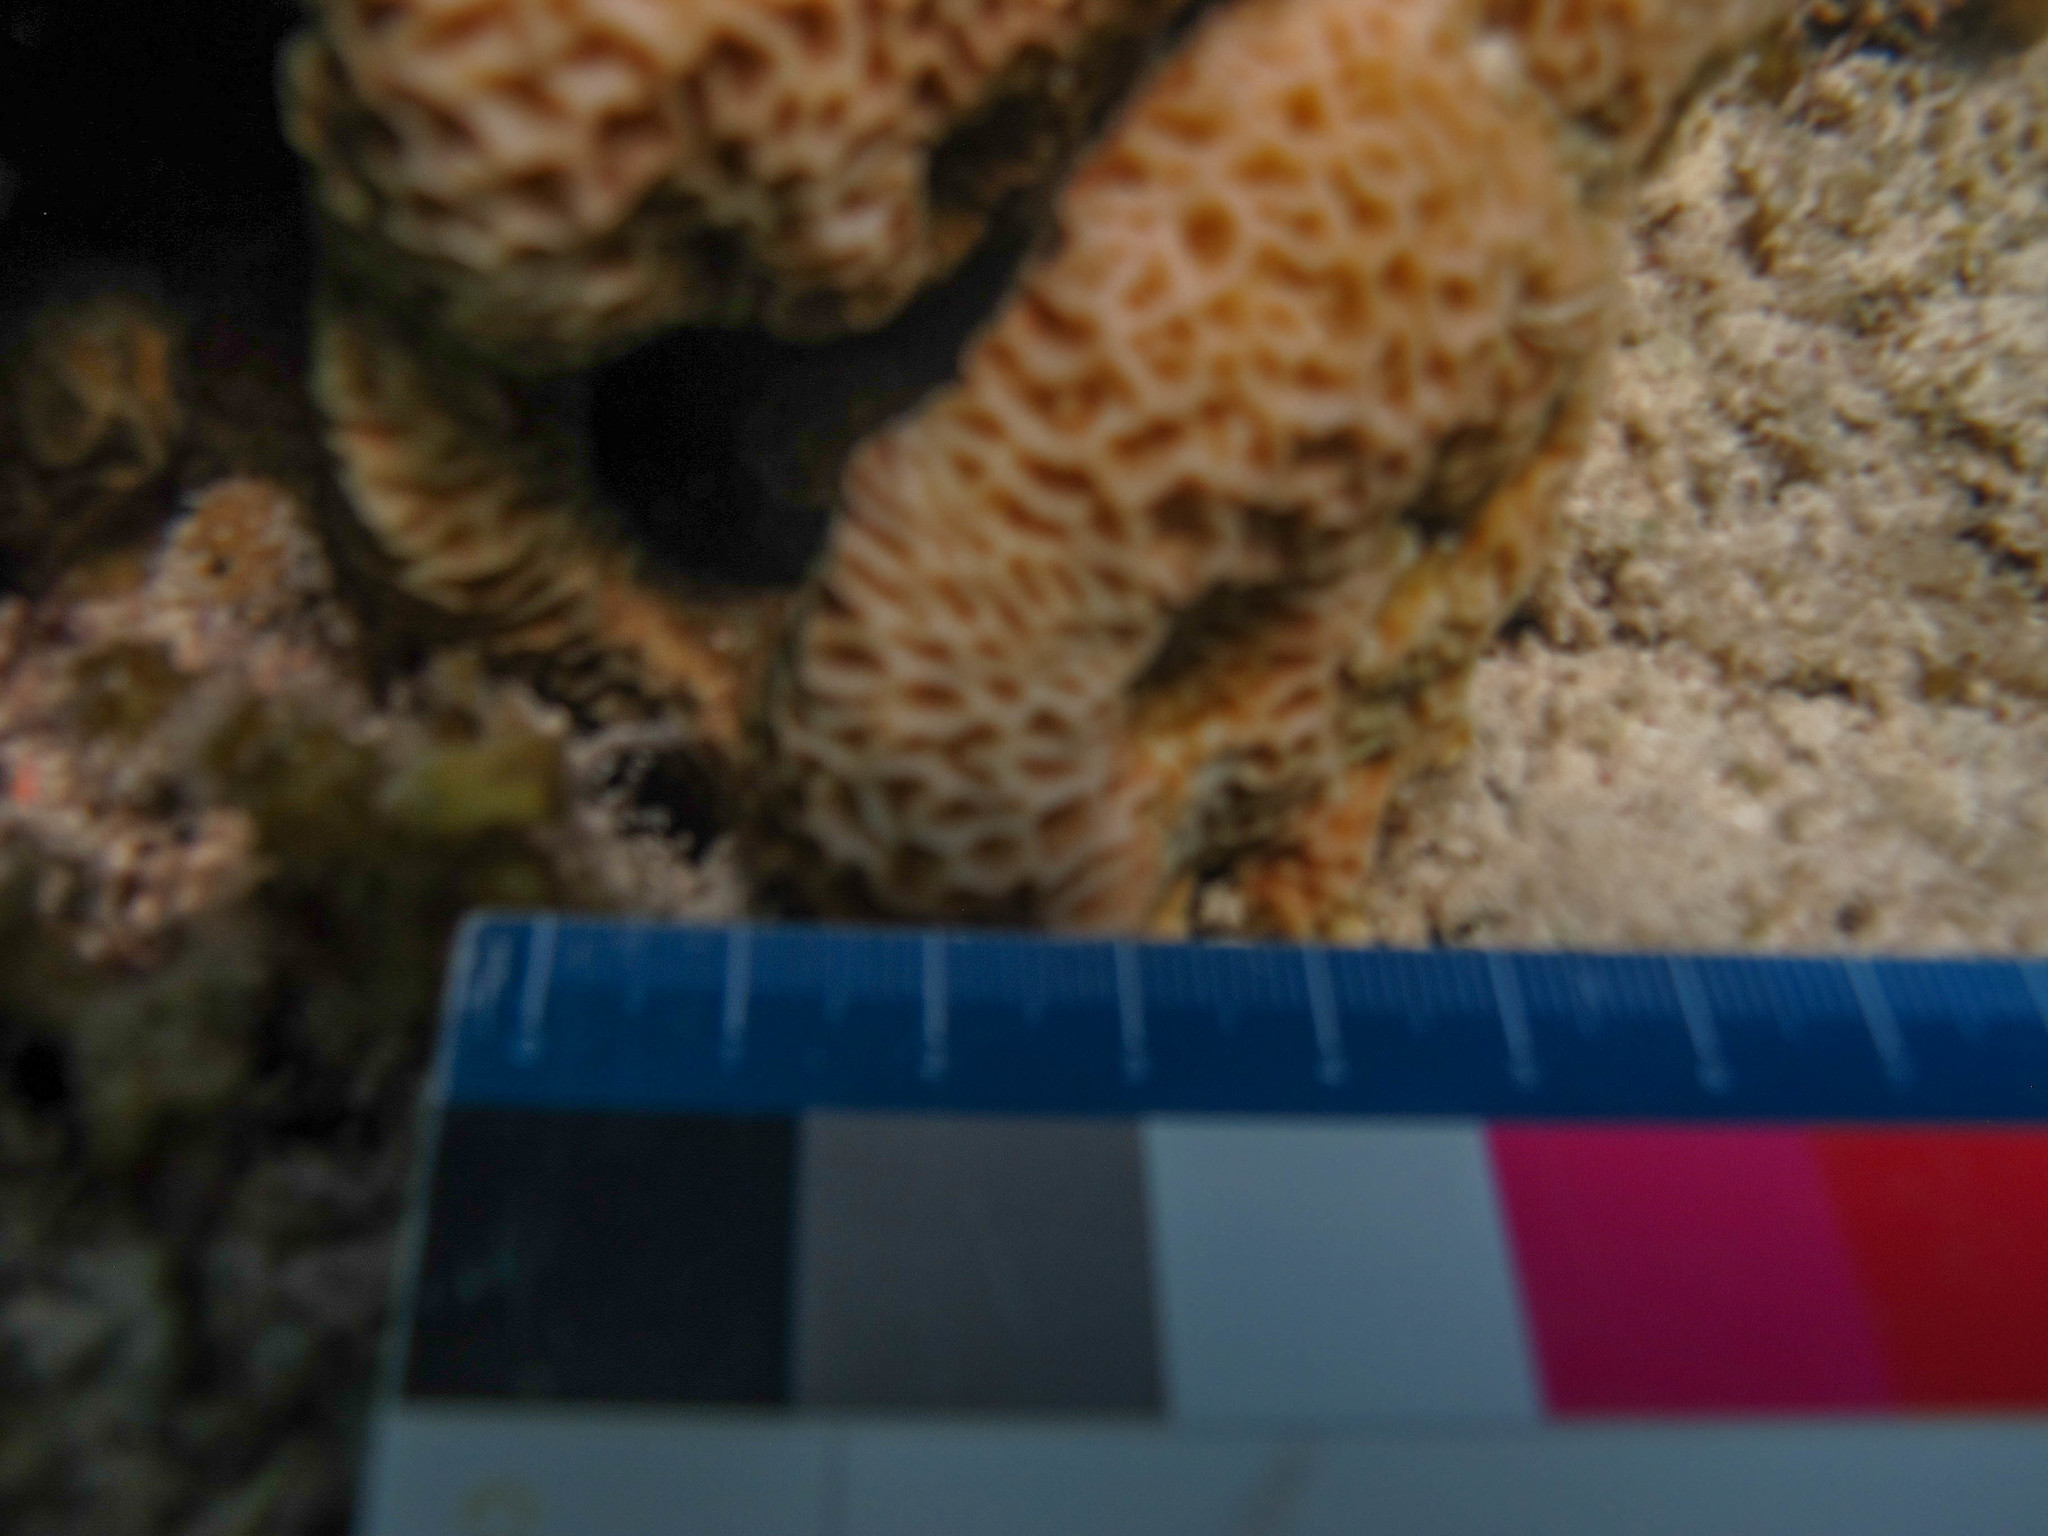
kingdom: Animalia
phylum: Cnidaria
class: Anthozoa
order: Scleractinia
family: Agariciidae
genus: Pavona
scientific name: Pavona venosa
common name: Leaf coral
